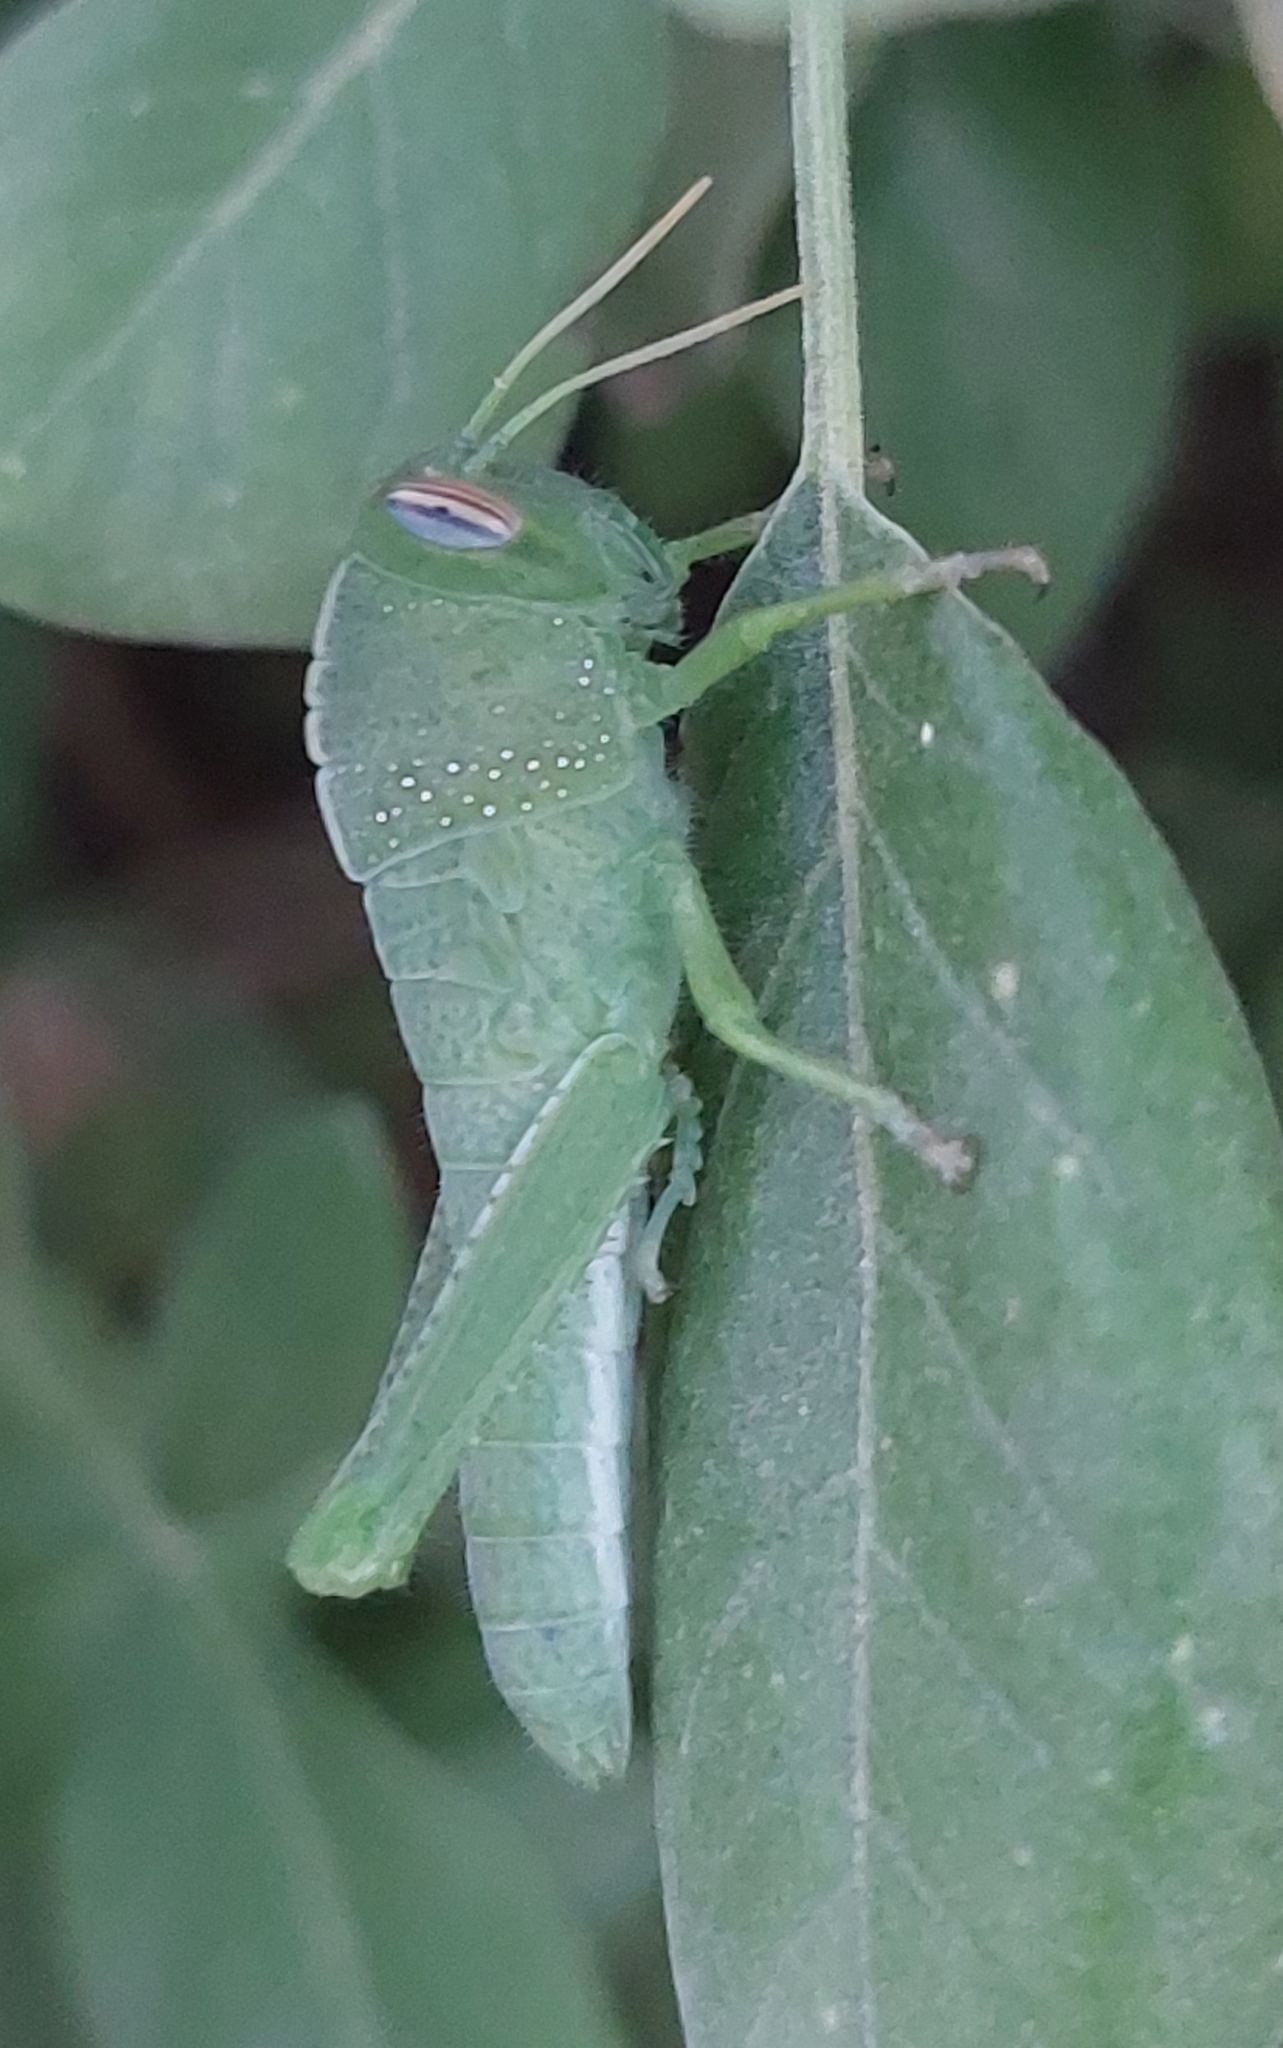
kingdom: Animalia
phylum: Arthropoda
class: Insecta
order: Orthoptera
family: Acrididae
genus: Anacridium
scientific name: Anacridium aegyptium
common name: Egyptian grasshopper
